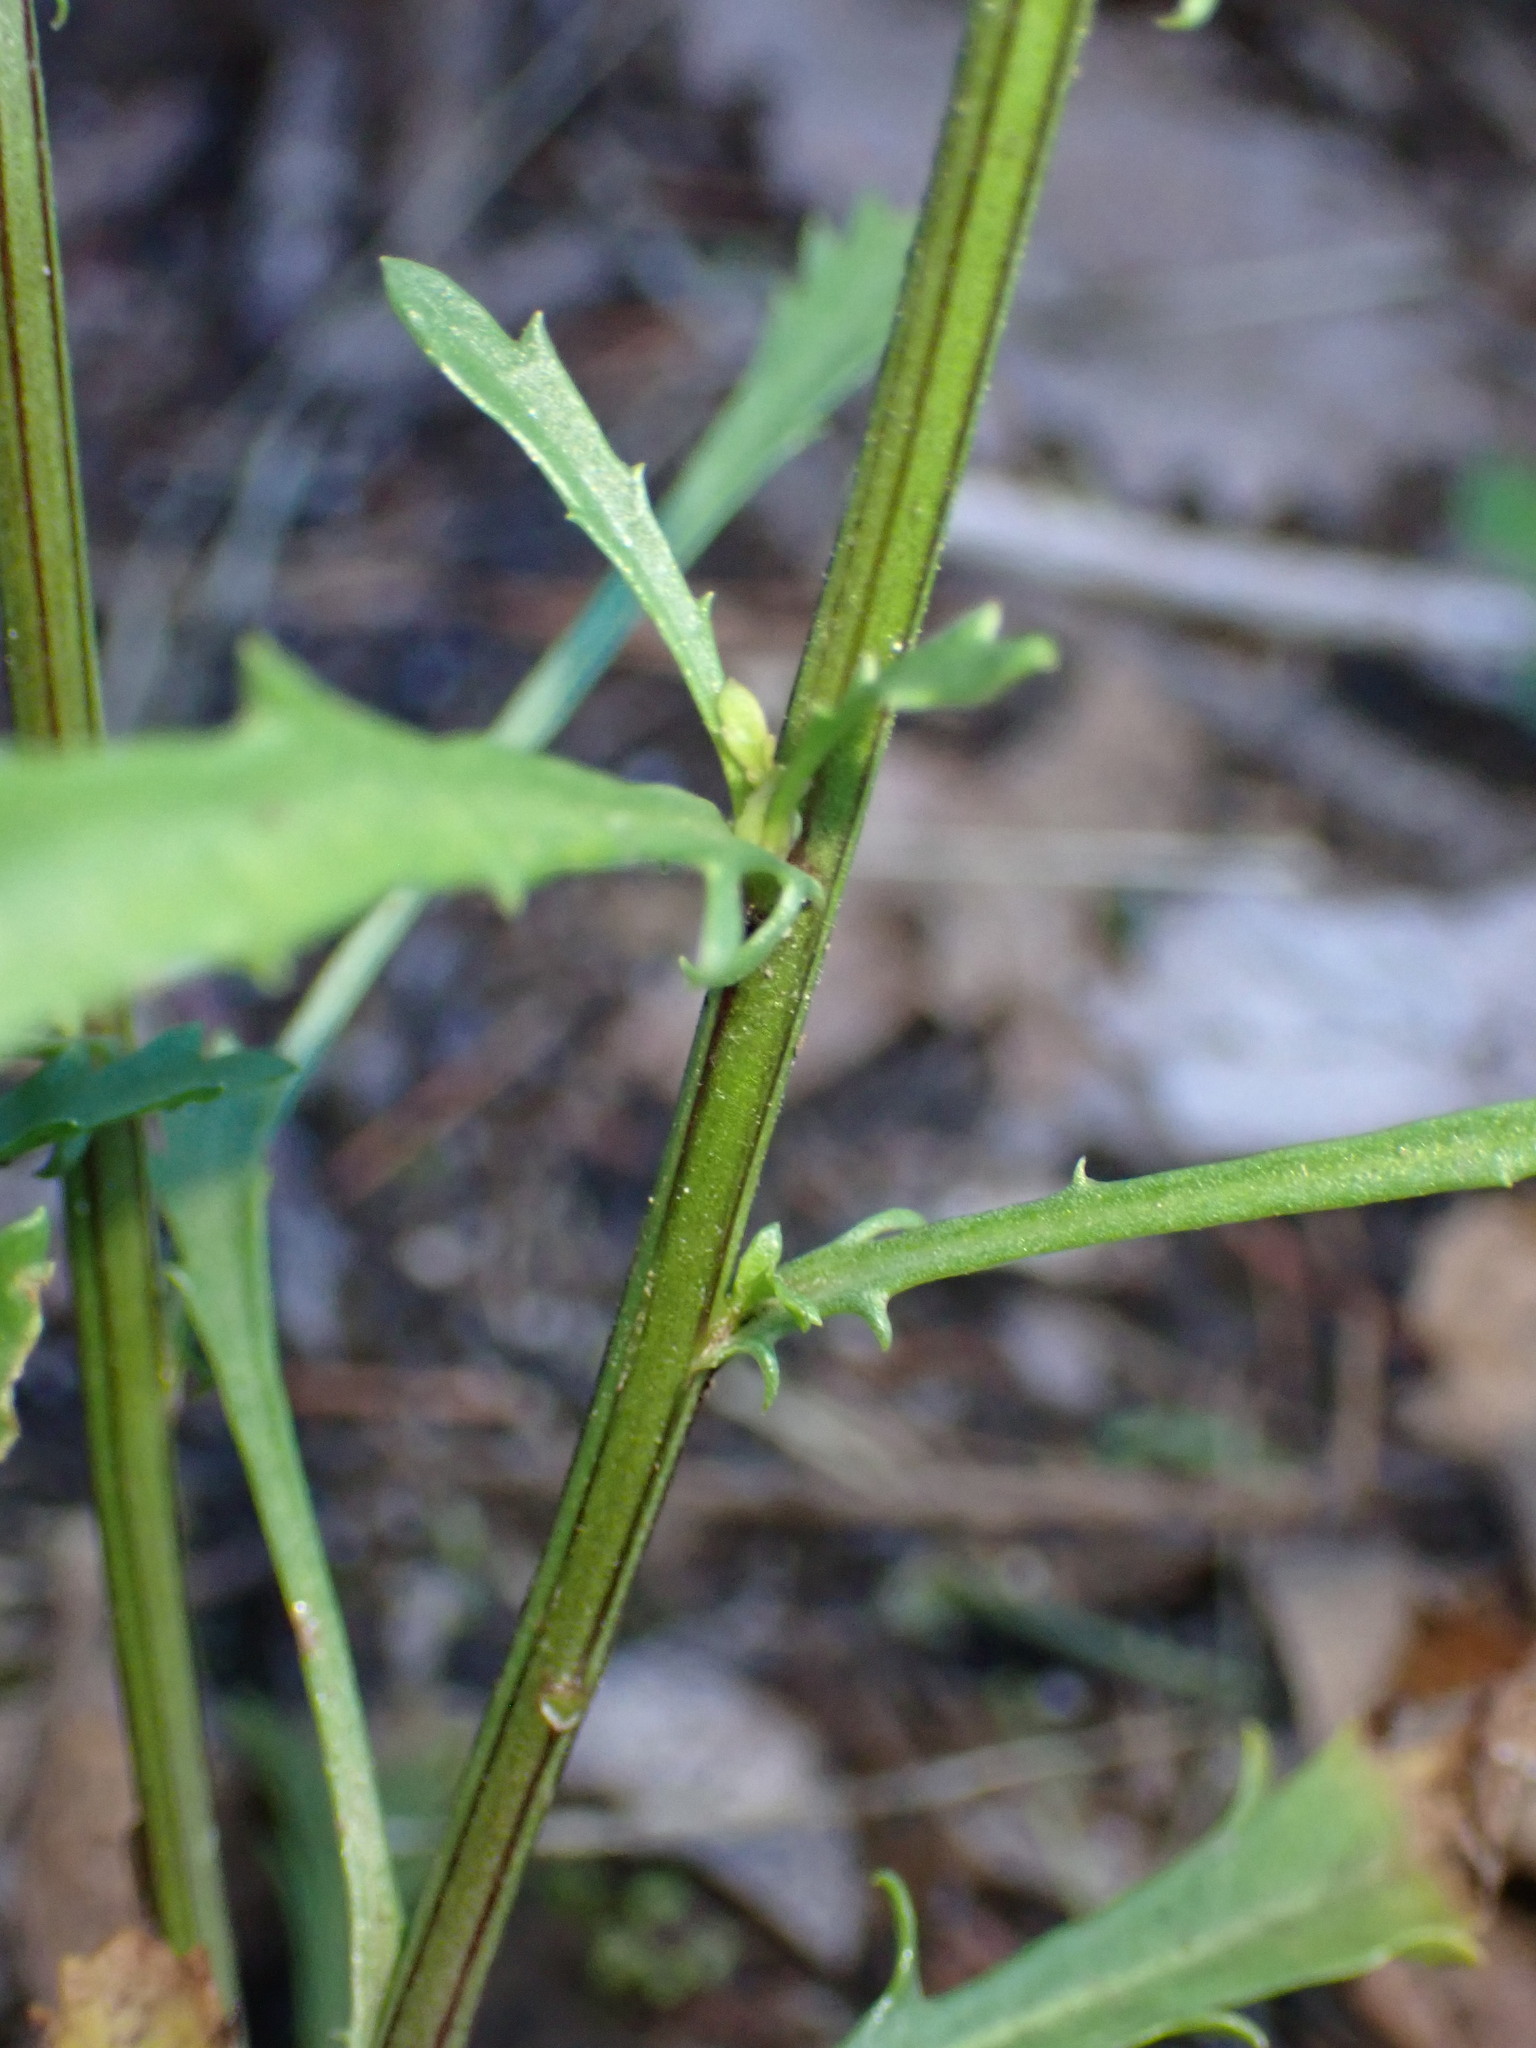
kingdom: Plantae
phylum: Tracheophyta
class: Magnoliopsida
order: Asterales
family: Asteraceae
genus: Leucanthemum
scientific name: Leucanthemum vulgare
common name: Oxeye daisy
